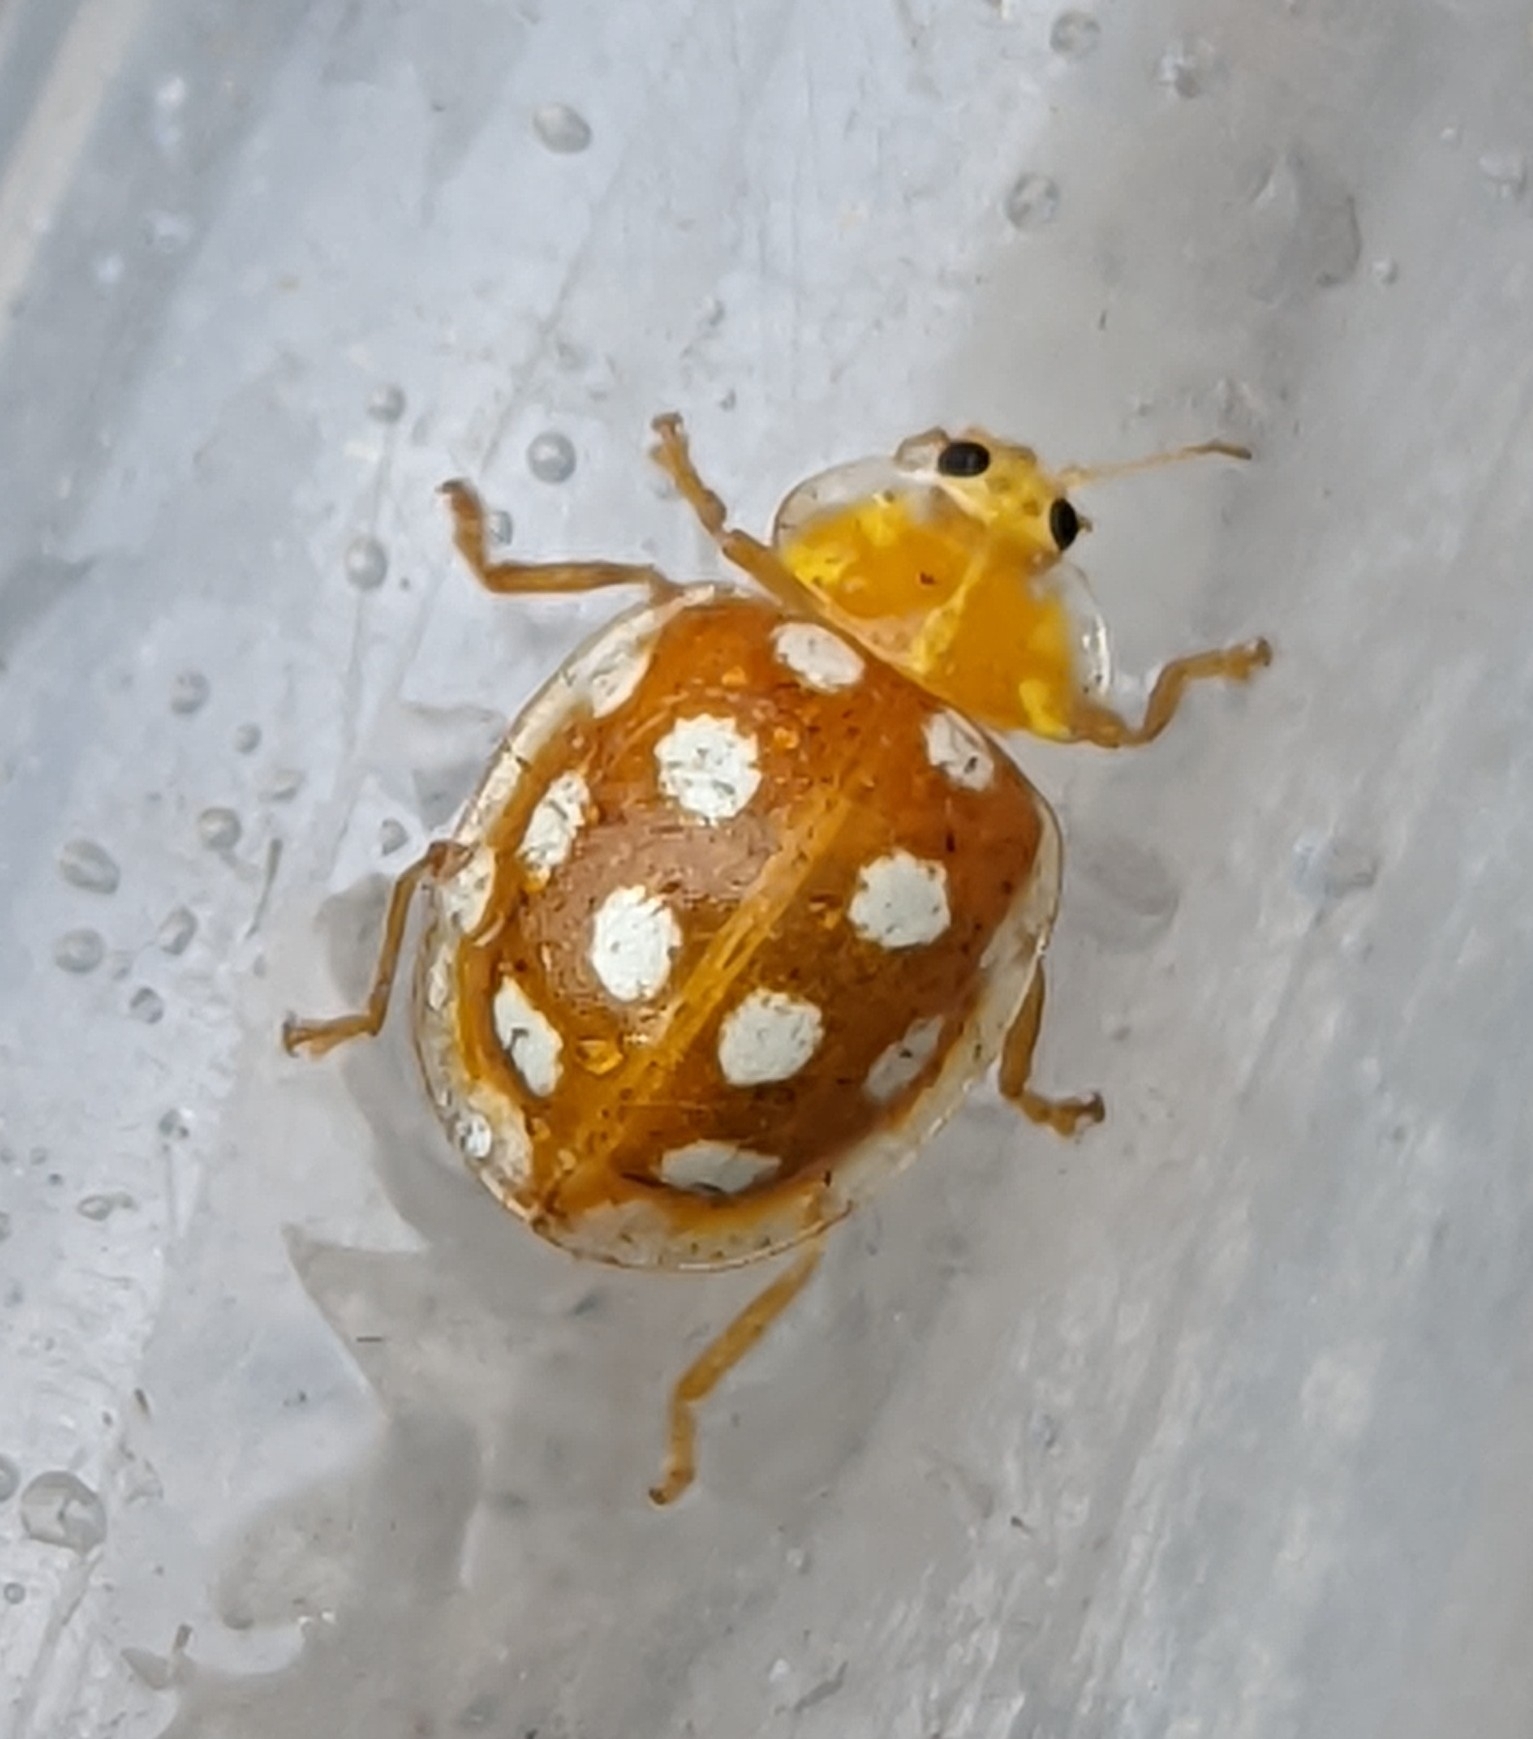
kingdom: Animalia
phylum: Arthropoda
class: Insecta
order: Coleoptera
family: Coccinellidae
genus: Halyzia
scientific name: Halyzia sedecimguttata
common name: Orange ladybird
